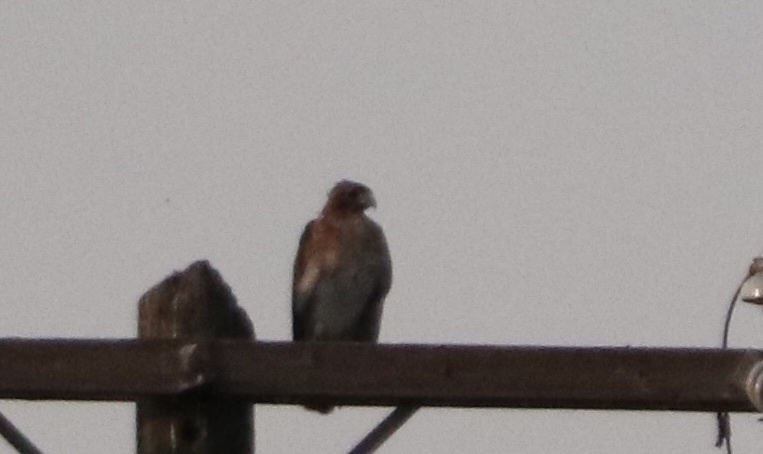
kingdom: Animalia
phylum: Chordata
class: Aves
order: Accipitriformes
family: Accipitridae
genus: Buteo
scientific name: Buteo jamaicensis
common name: Red-tailed hawk
